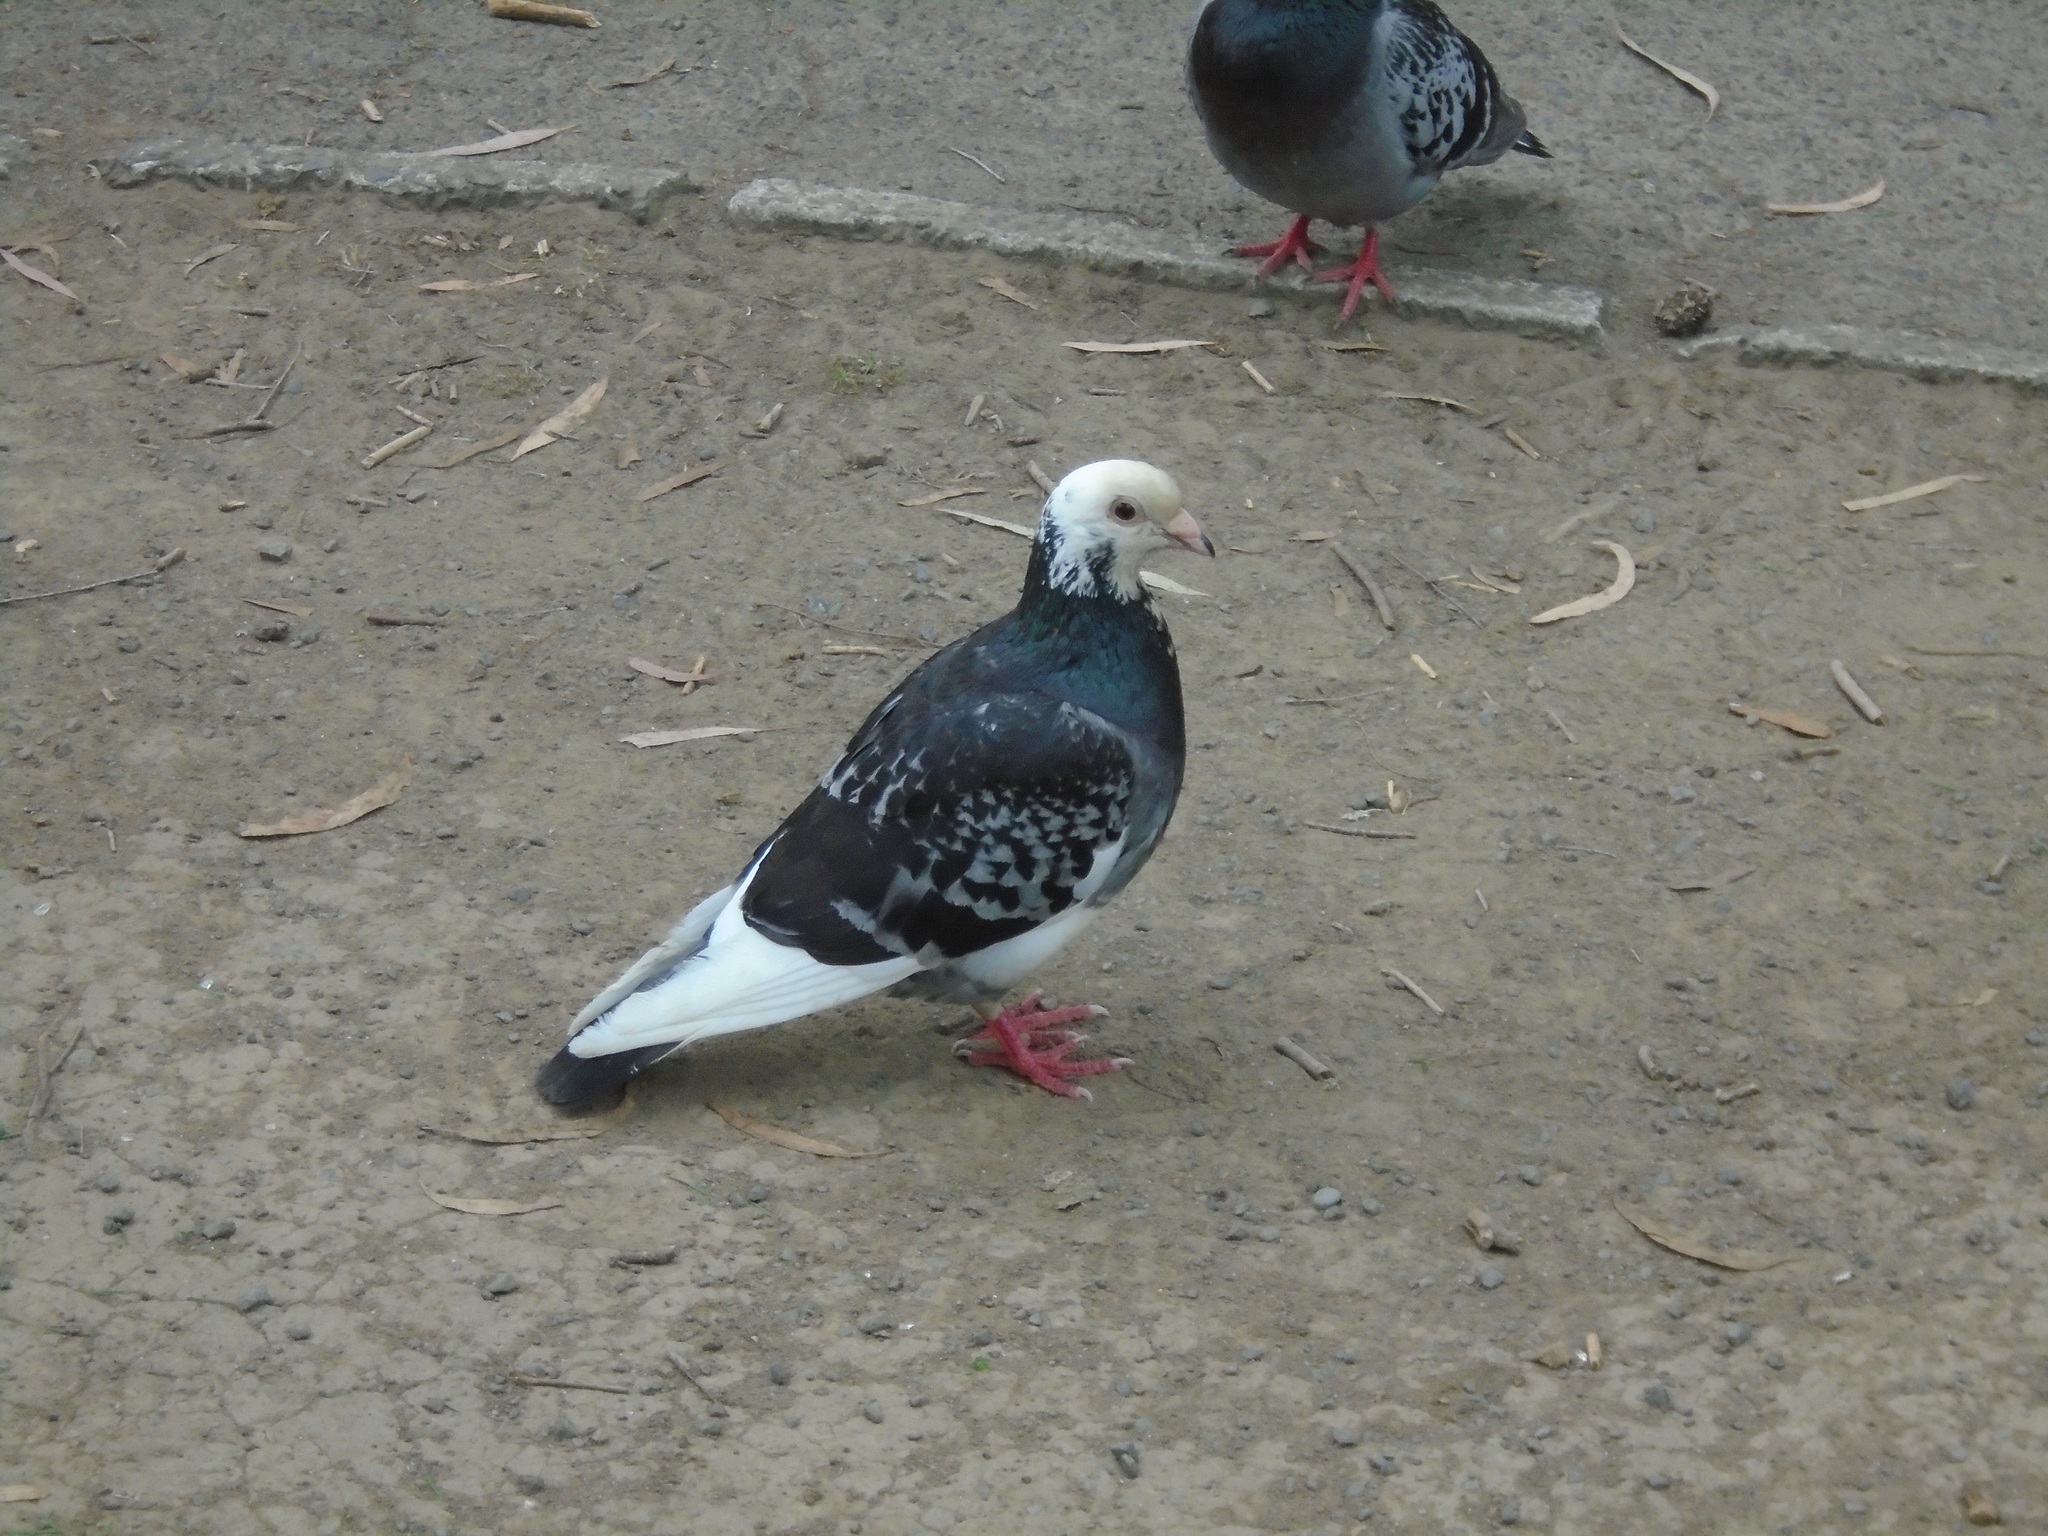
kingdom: Animalia
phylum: Chordata
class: Aves
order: Columbiformes
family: Columbidae
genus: Columba
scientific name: Columba livia
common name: Rock pigeon
